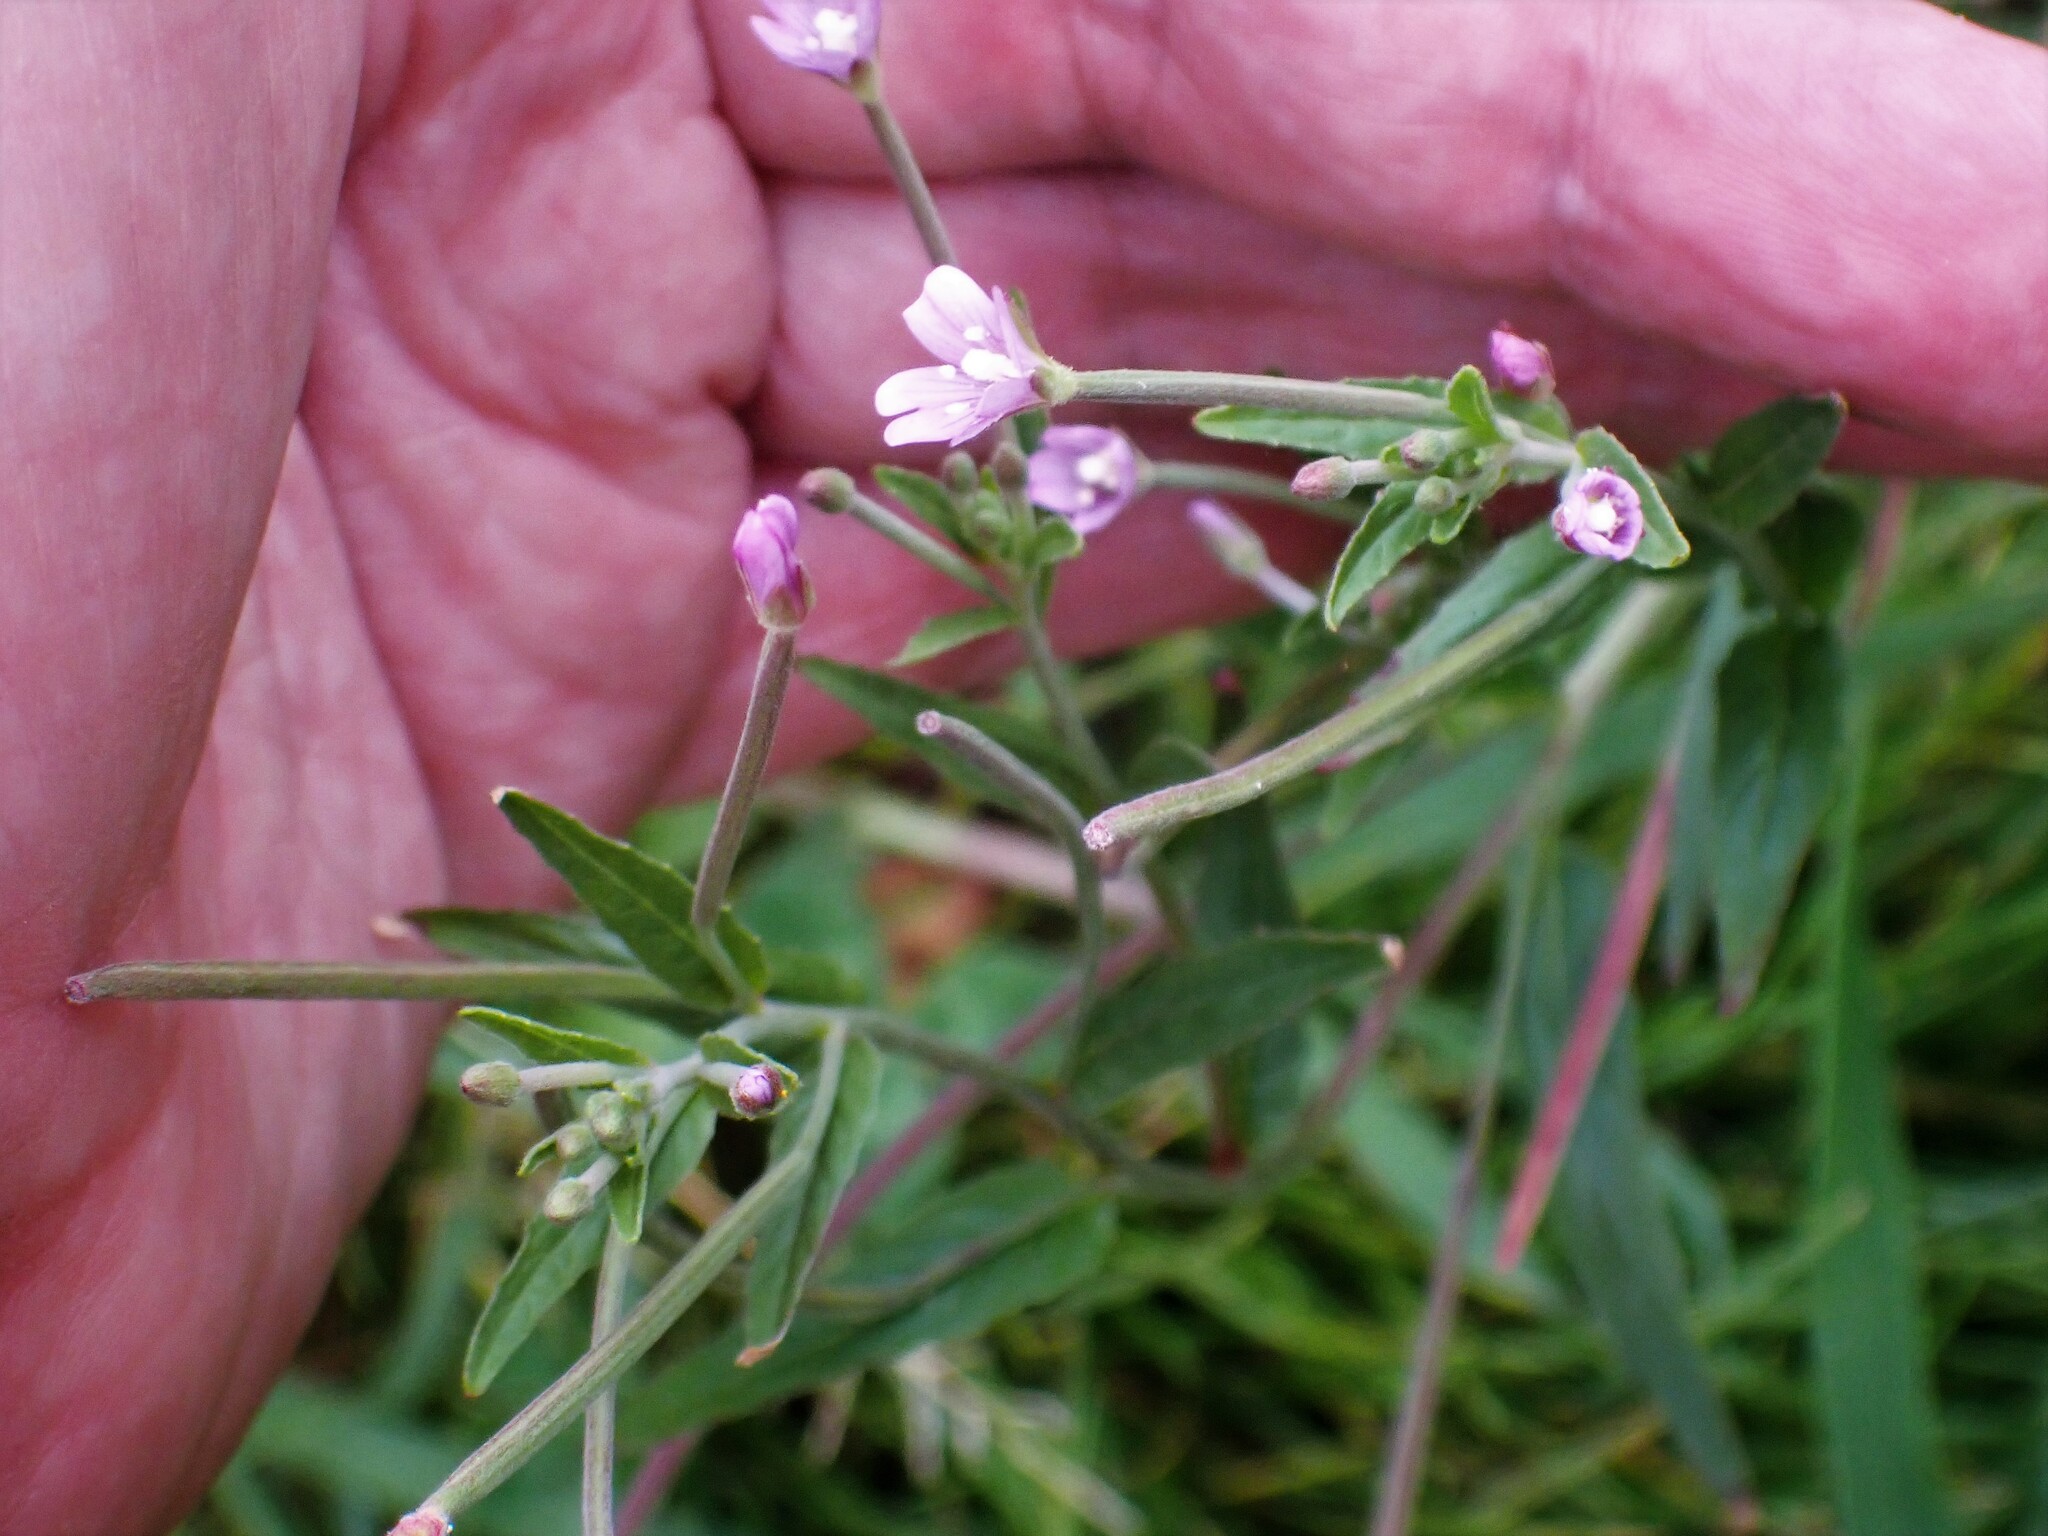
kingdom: Plantae
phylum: Tracheophyta
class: Magnoliopsida
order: Myrtales
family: Onagraceae
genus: Epilobium
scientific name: Epilobium obscurum
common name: Short-fruited willowherb
